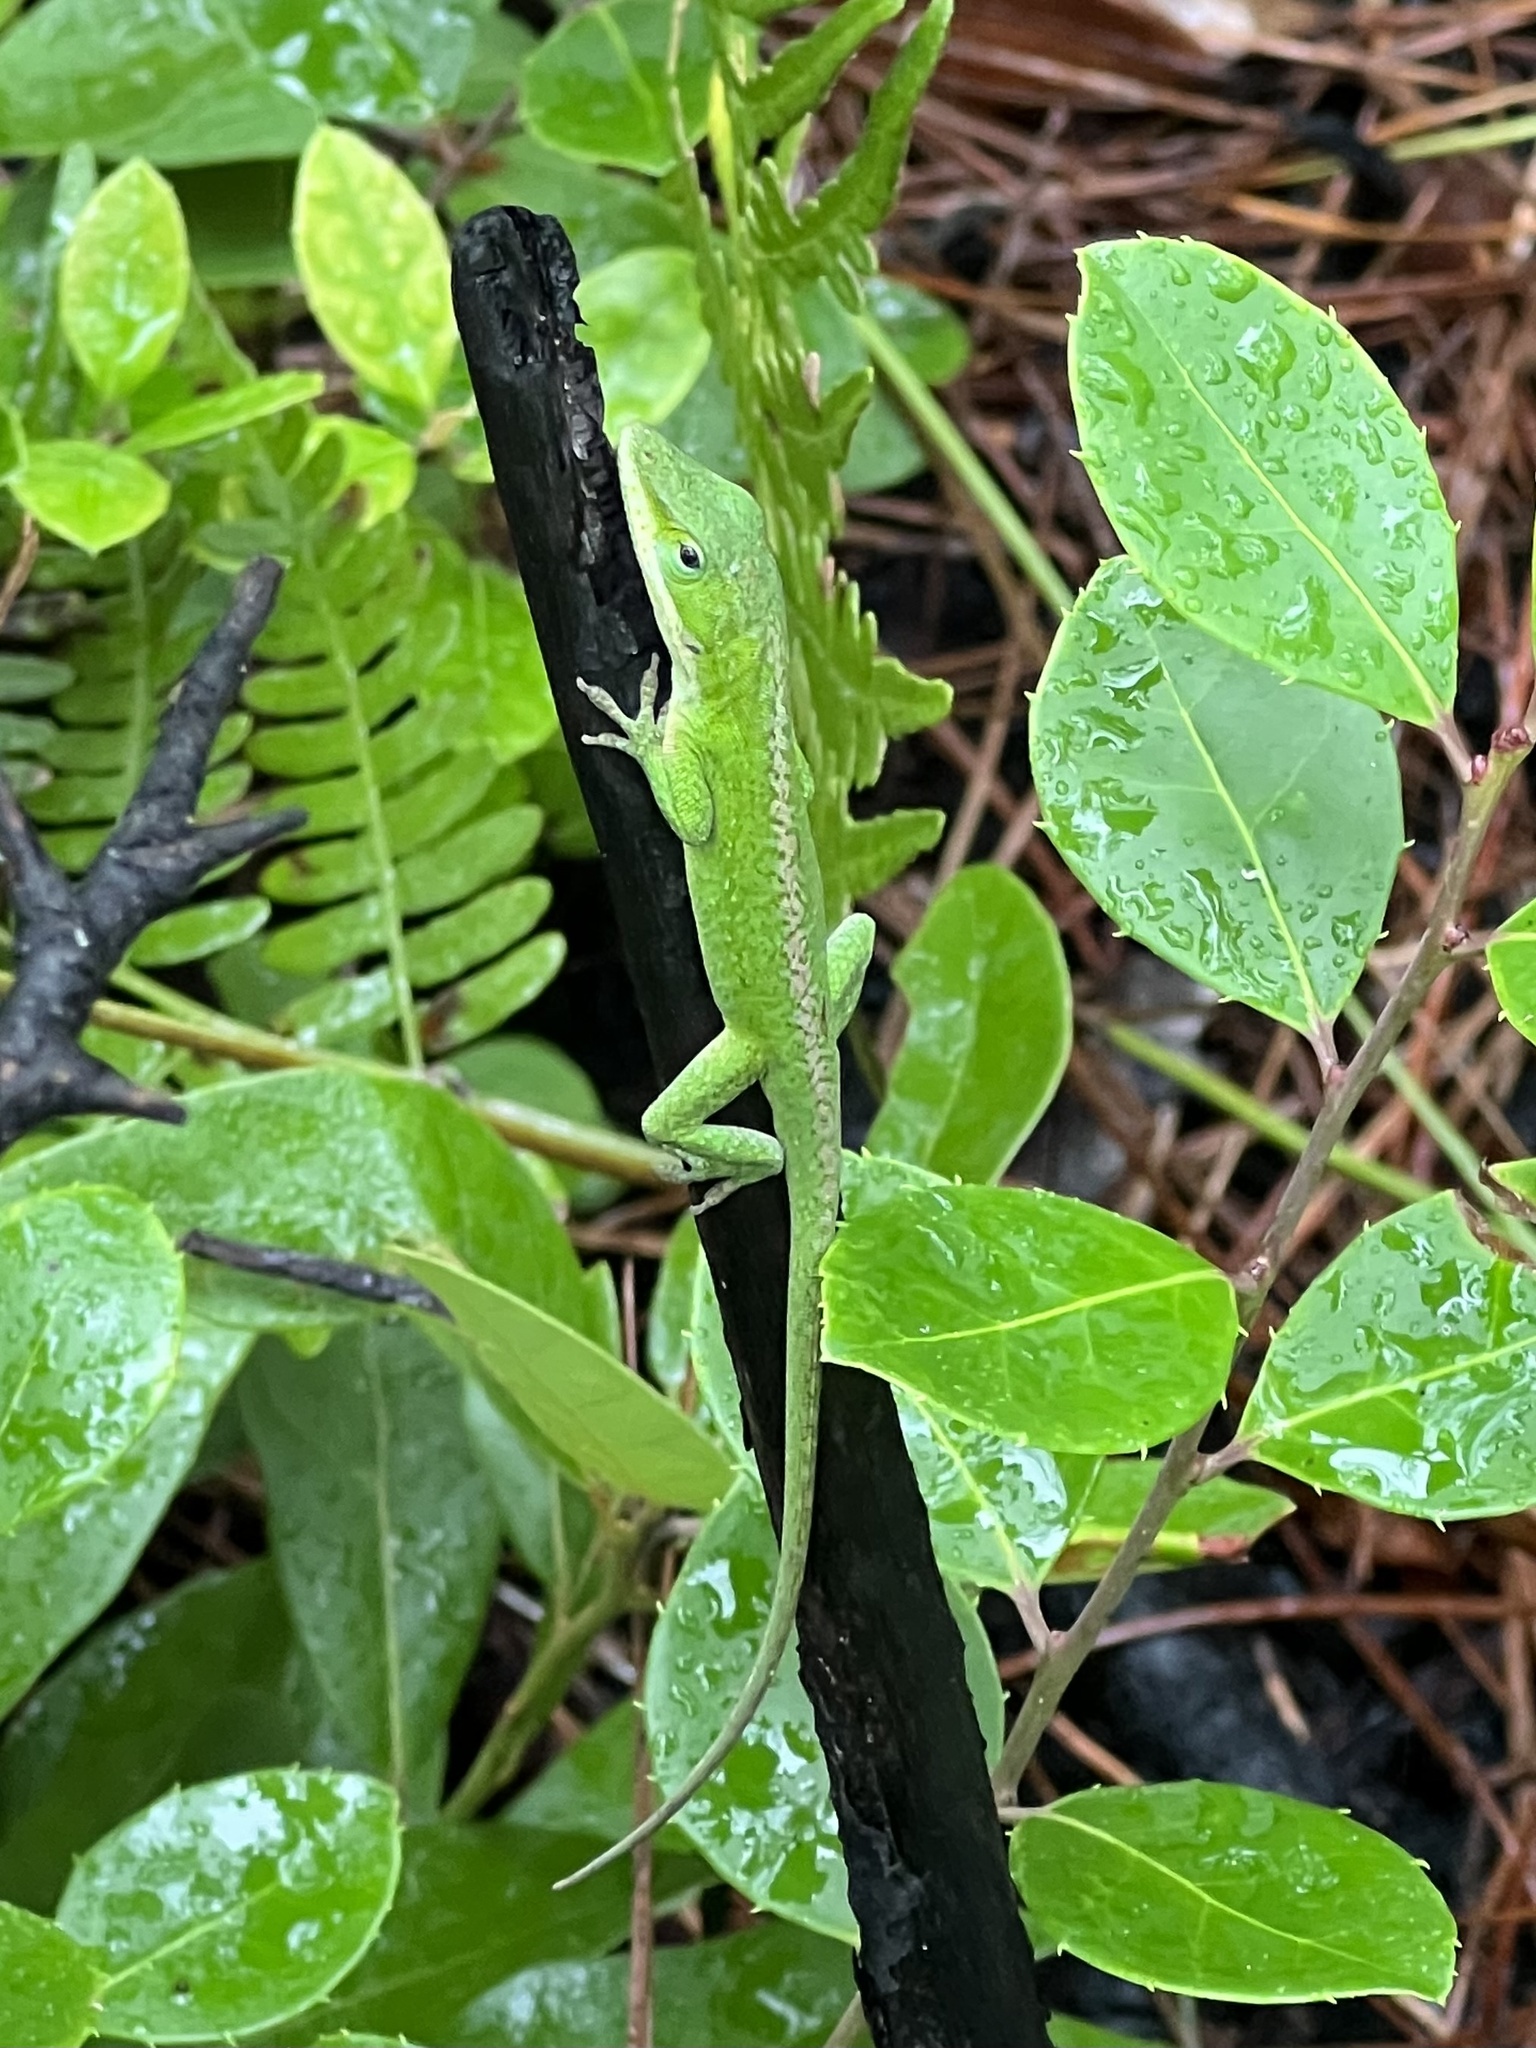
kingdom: Animalia
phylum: Chordata
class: Squamata
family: Dactyloidae
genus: Anolis
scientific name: Anolis carolinensis
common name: Green anole
